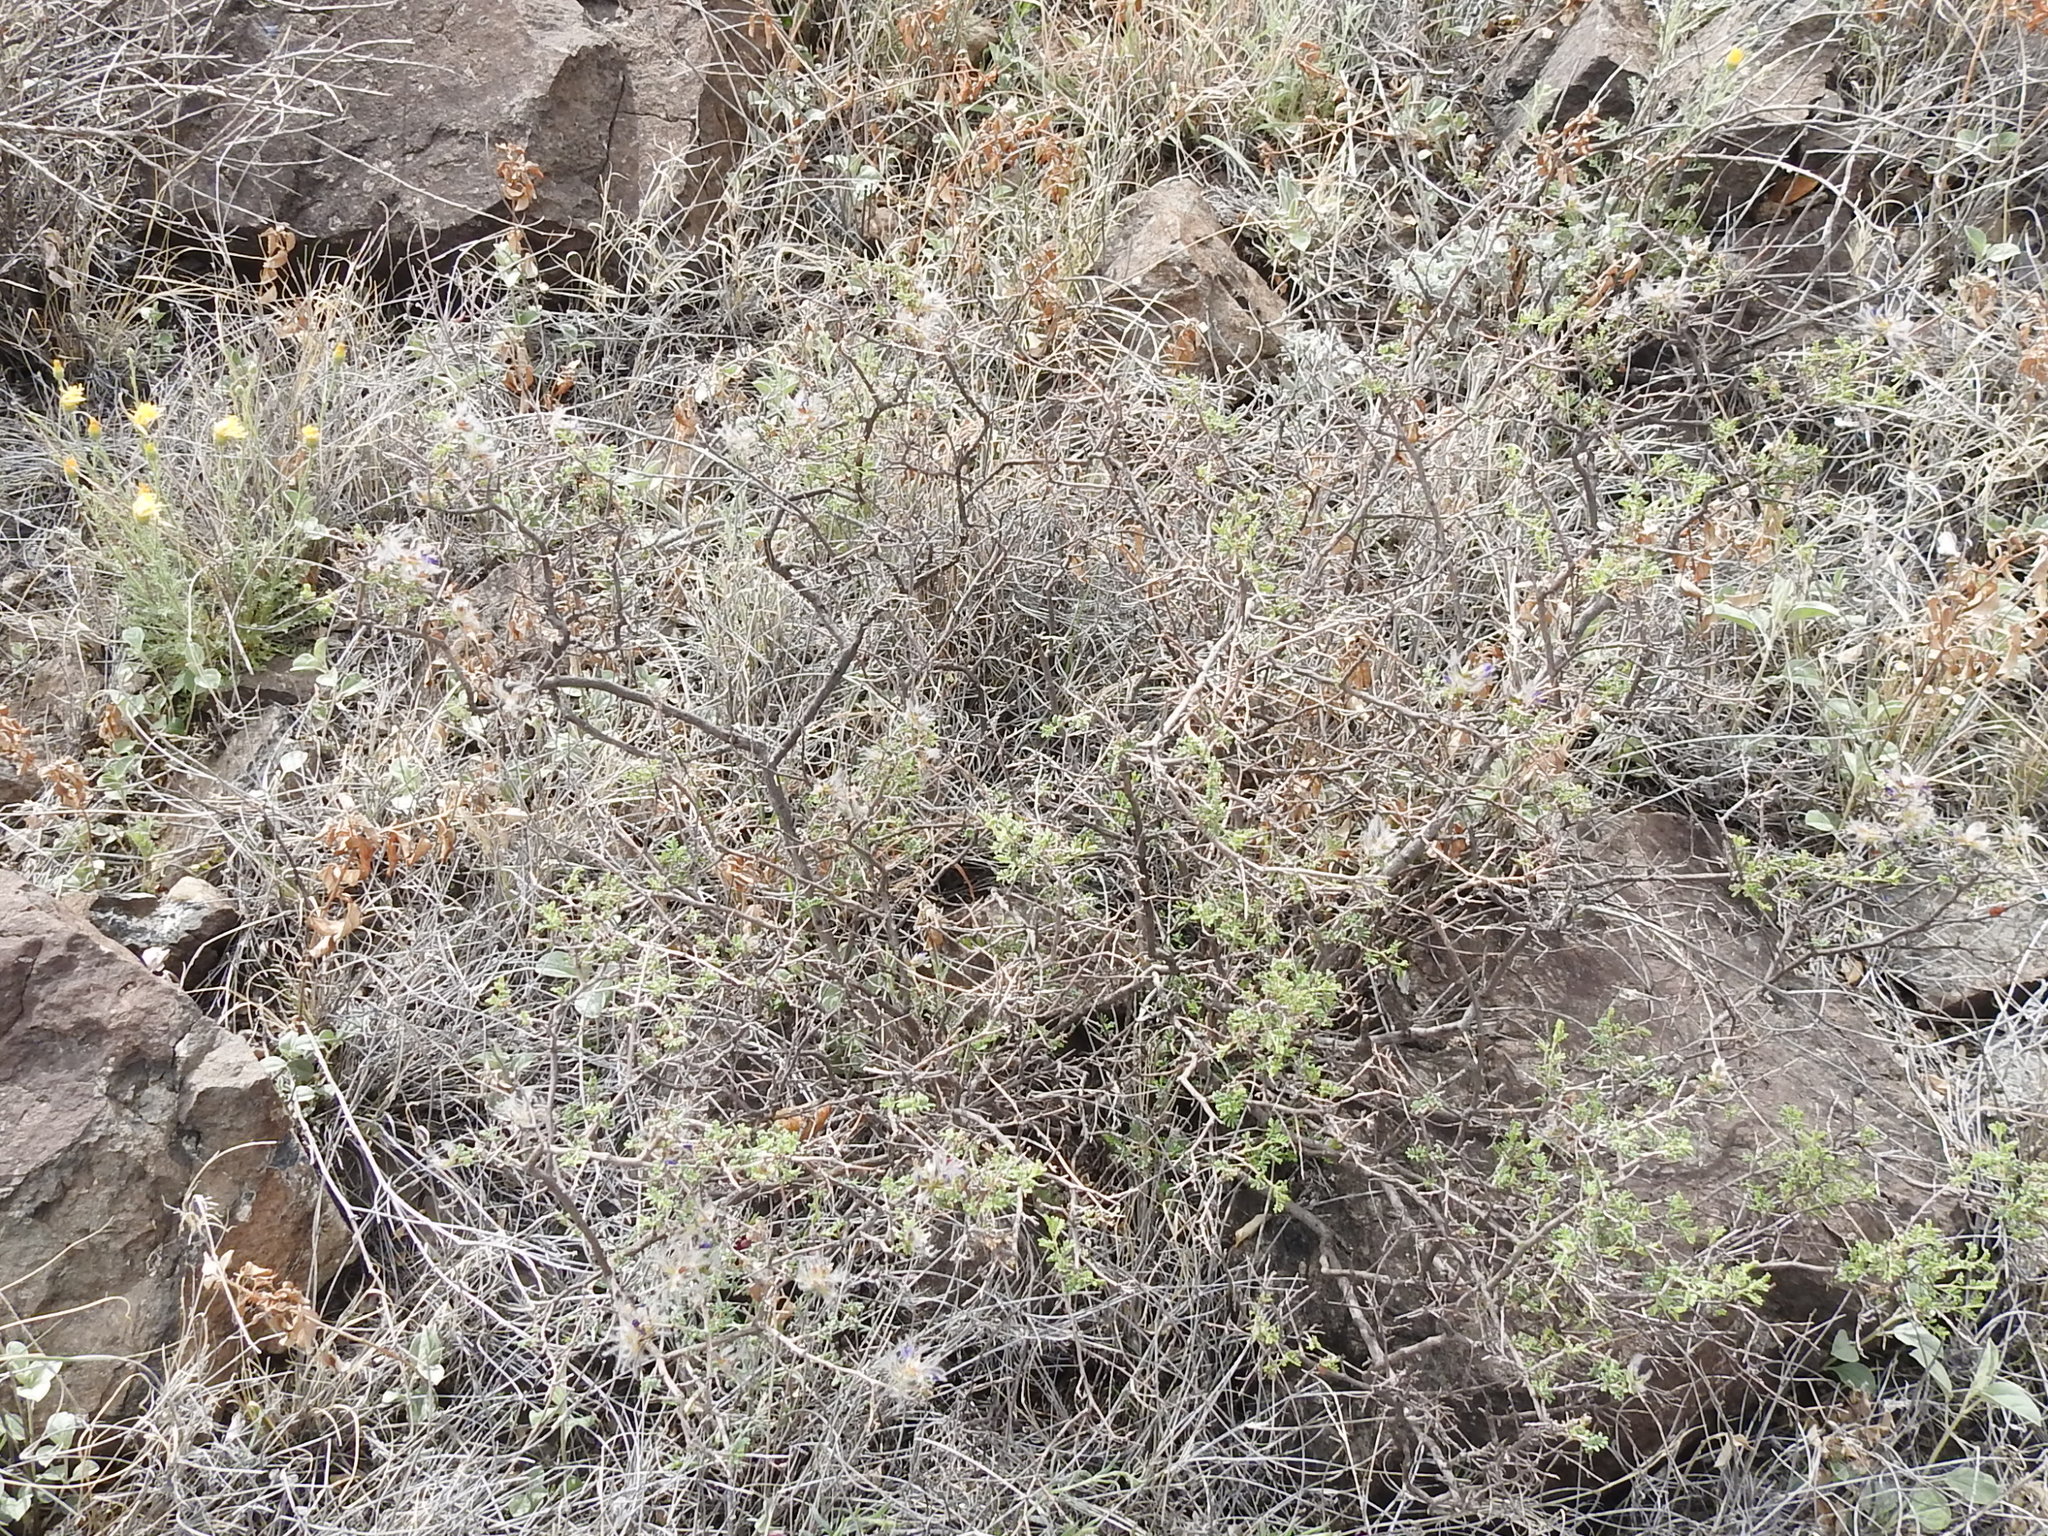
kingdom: Plantae
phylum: Tracheophyta
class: Magnoliopsida
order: Fabales
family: Fabaceae
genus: Dalea
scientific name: Dalea formosa
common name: Feather-plume dalea
